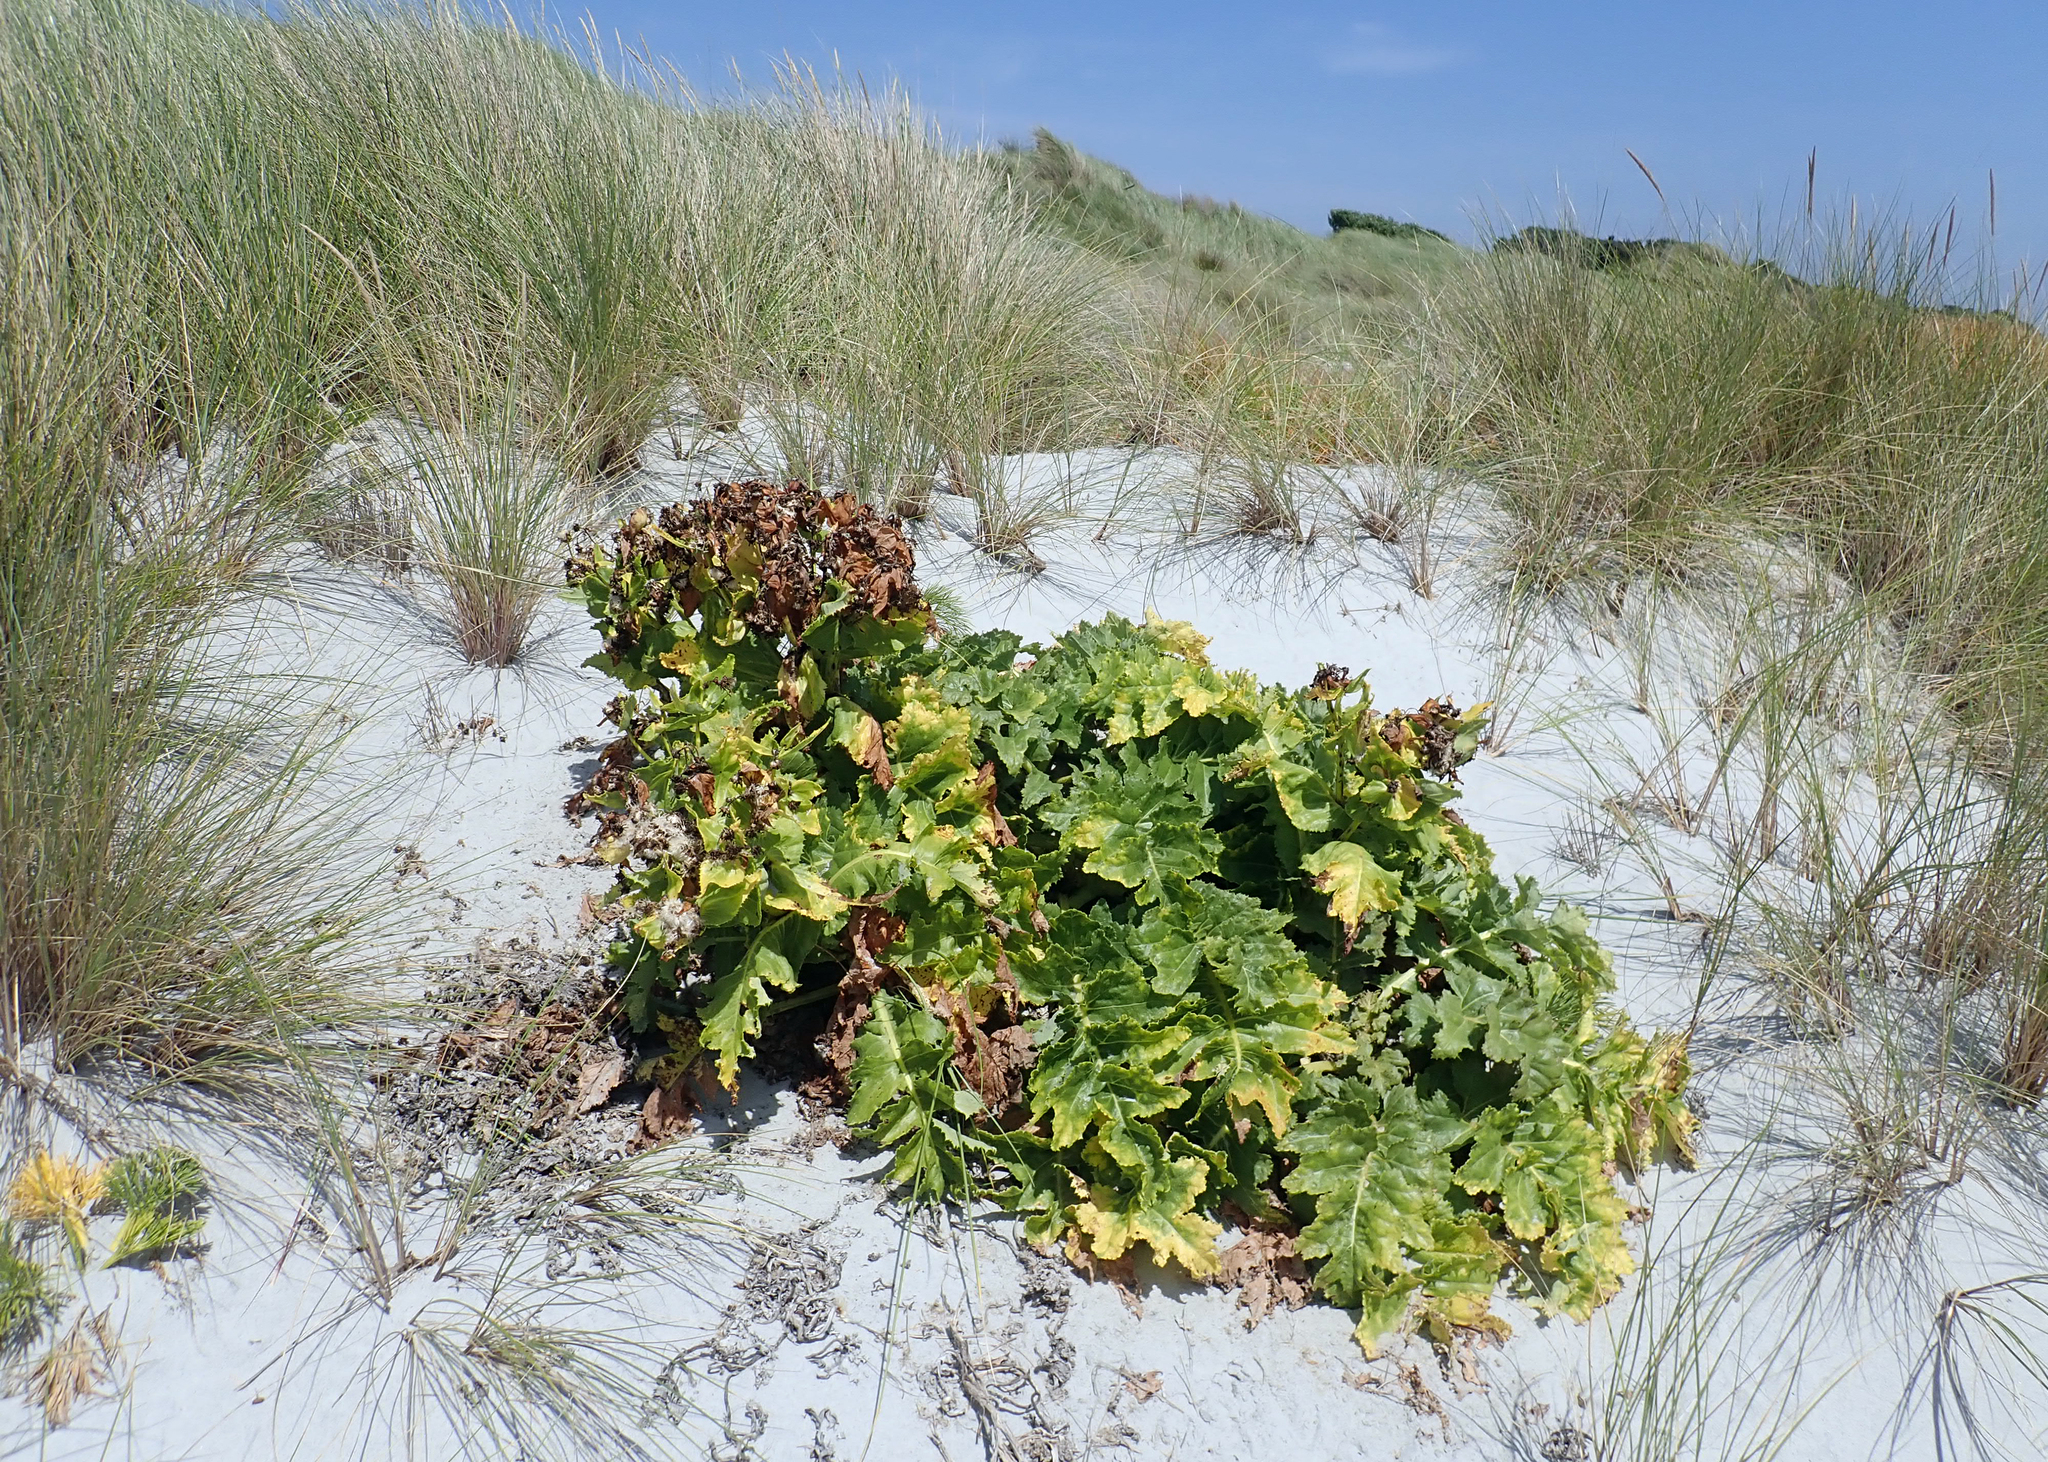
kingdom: Plantae
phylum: Tracheophyta
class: Magnoliopsida
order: Asterales
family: Asteraceae
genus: Sonchus
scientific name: Sonchus grandifolius
